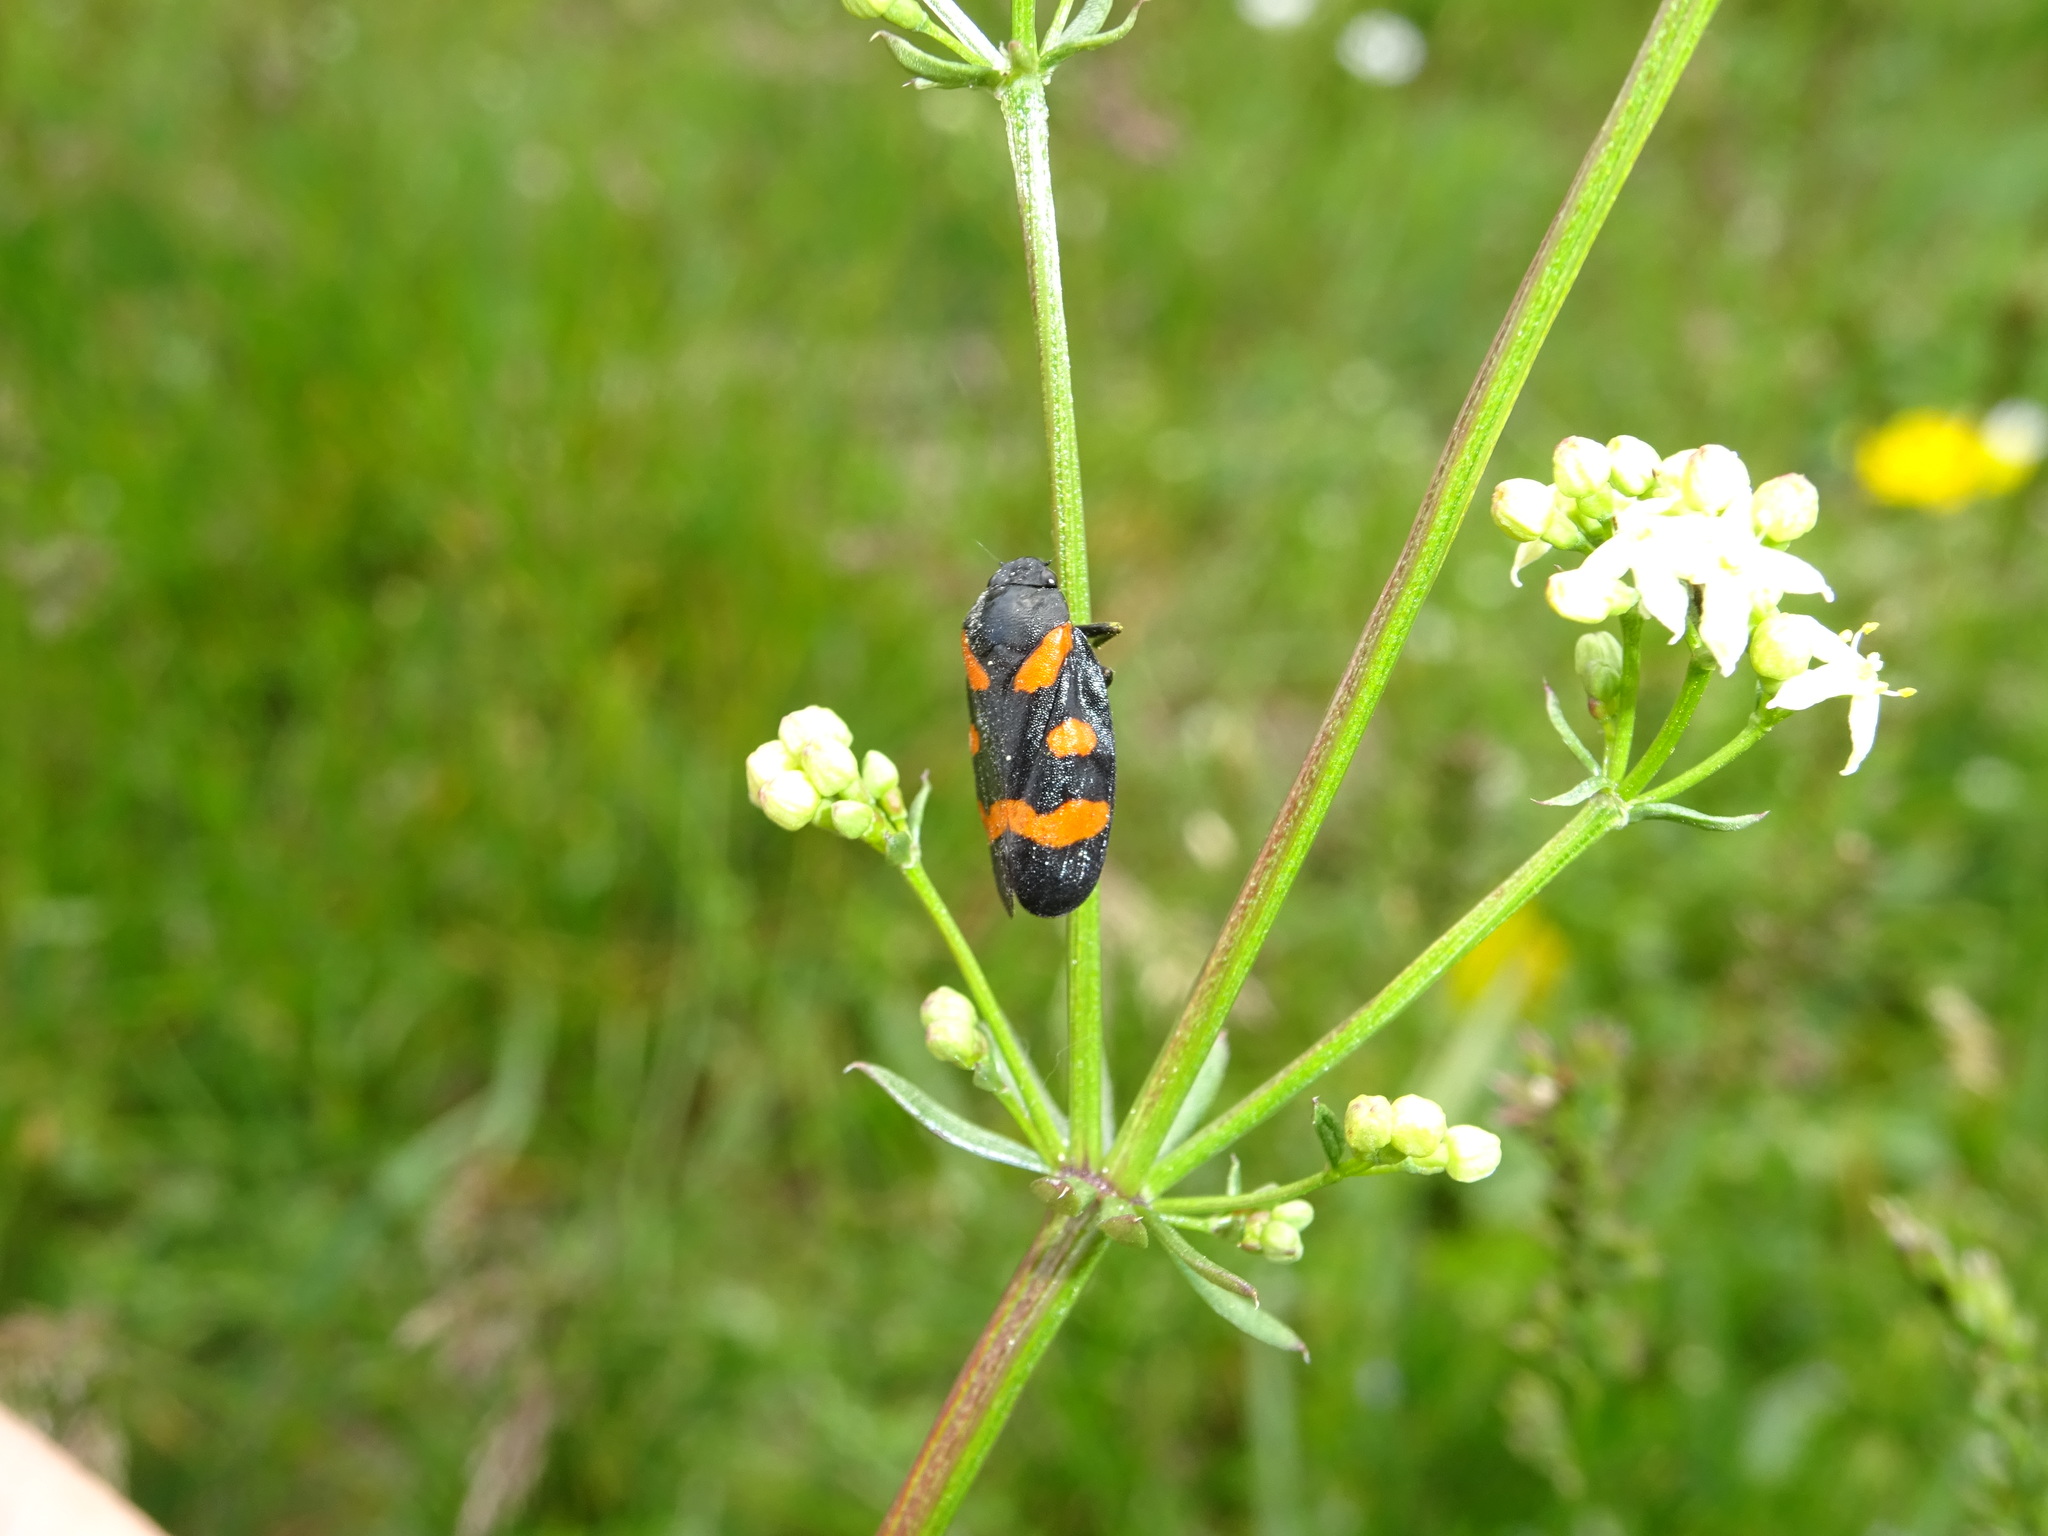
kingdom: Animalia
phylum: Arthropoda
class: Insecta
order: Hemiptera
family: Cercopidae
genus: Cercopis
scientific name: Cercopis sanguinolenta
